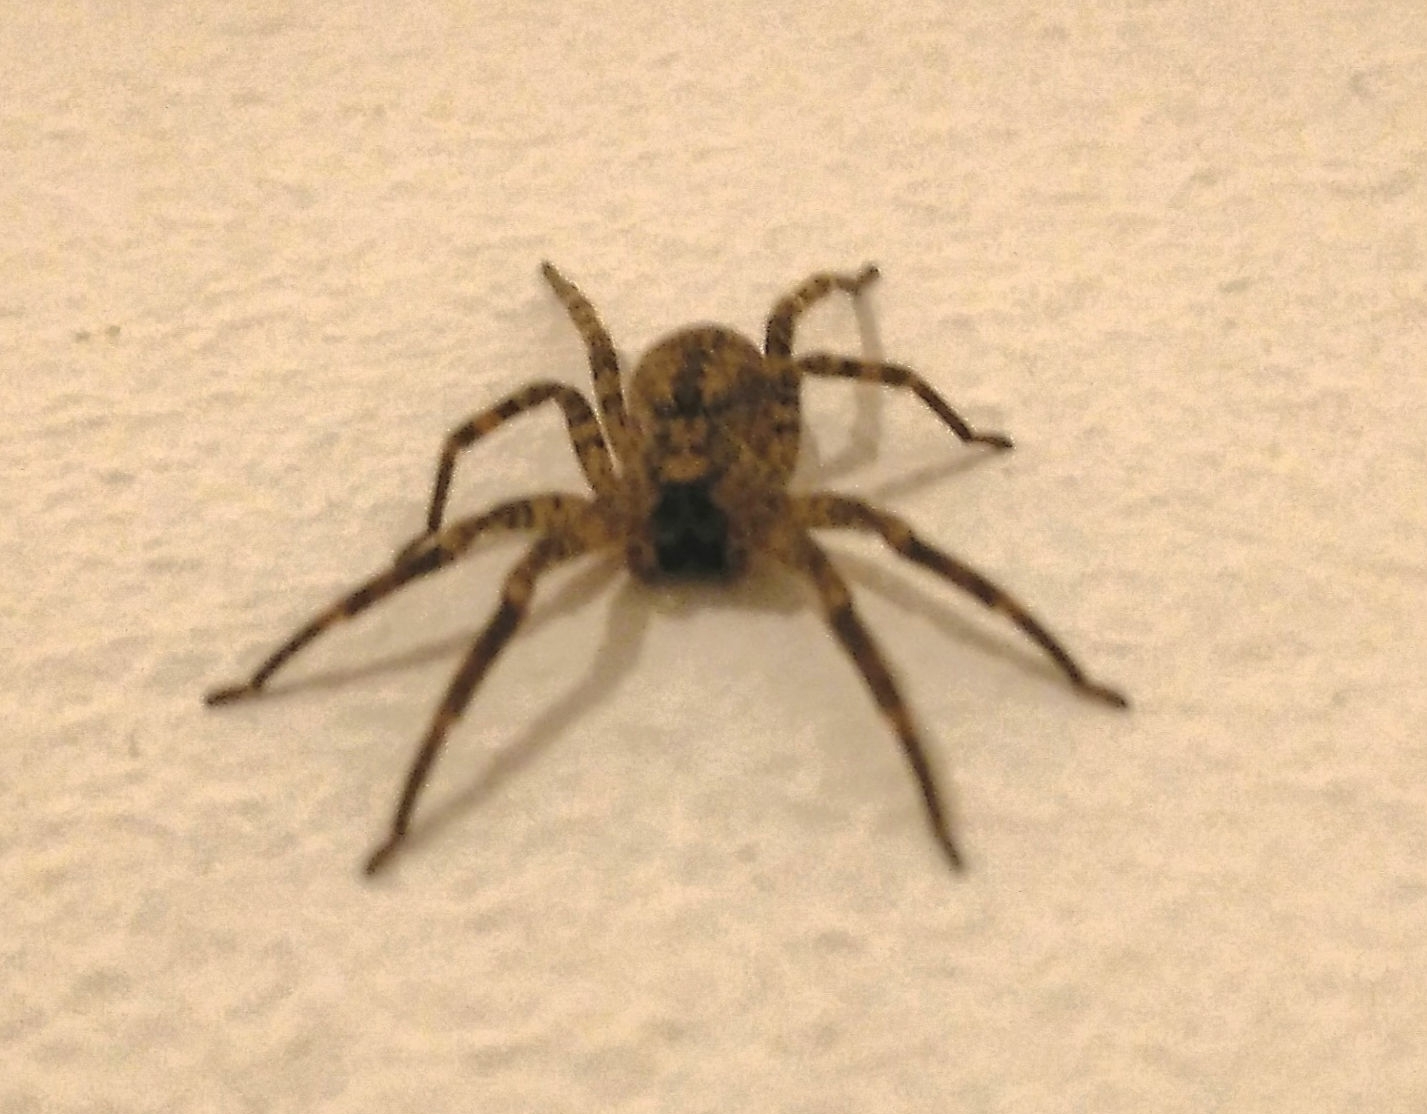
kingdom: Animalia
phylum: Arthropoda
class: Arachnida
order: Araneae
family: Zoropsidae
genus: Zoropsis
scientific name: Zoropsis spinimana
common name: Zoropsid spider
